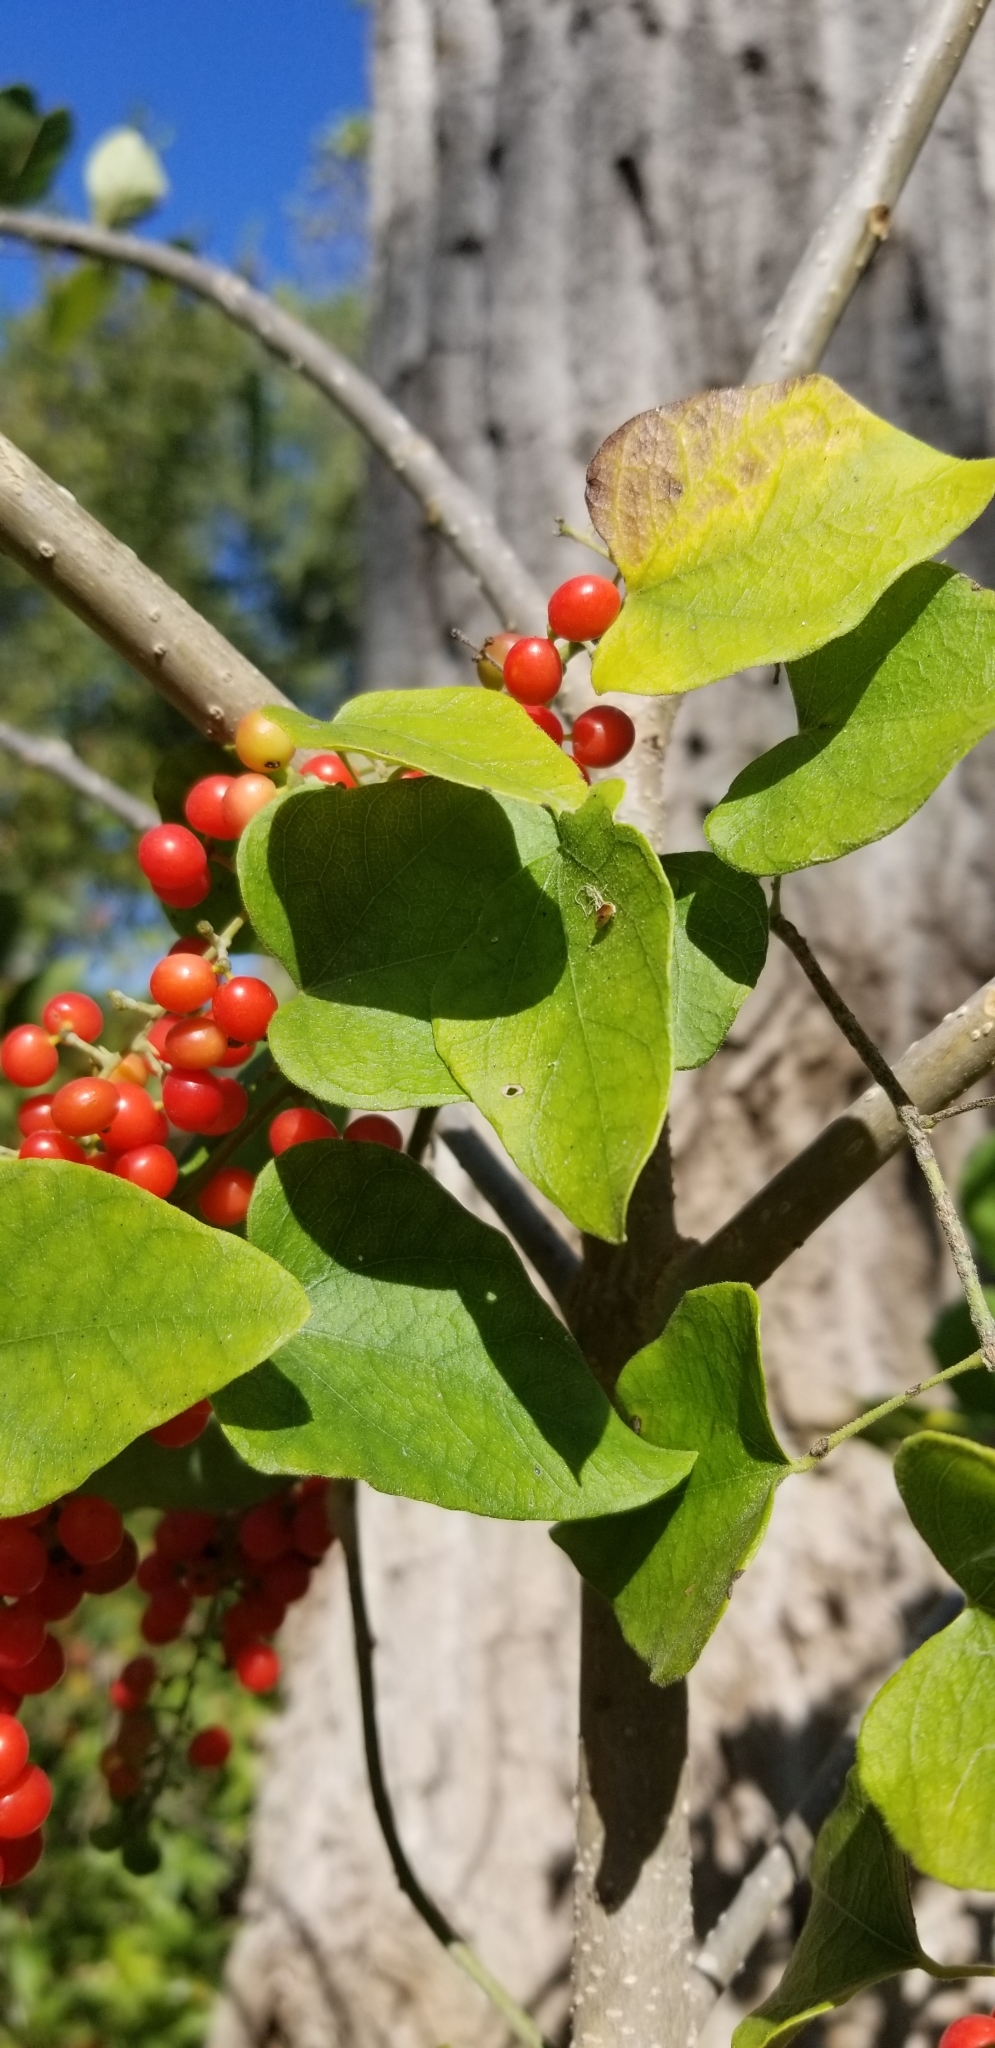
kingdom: Plantae
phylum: Tracheophyta
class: Magnoliopsida
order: Ranunculales
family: Menispermaceae
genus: Cocculus
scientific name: Cocculus carolinus
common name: Carolina moonseed
